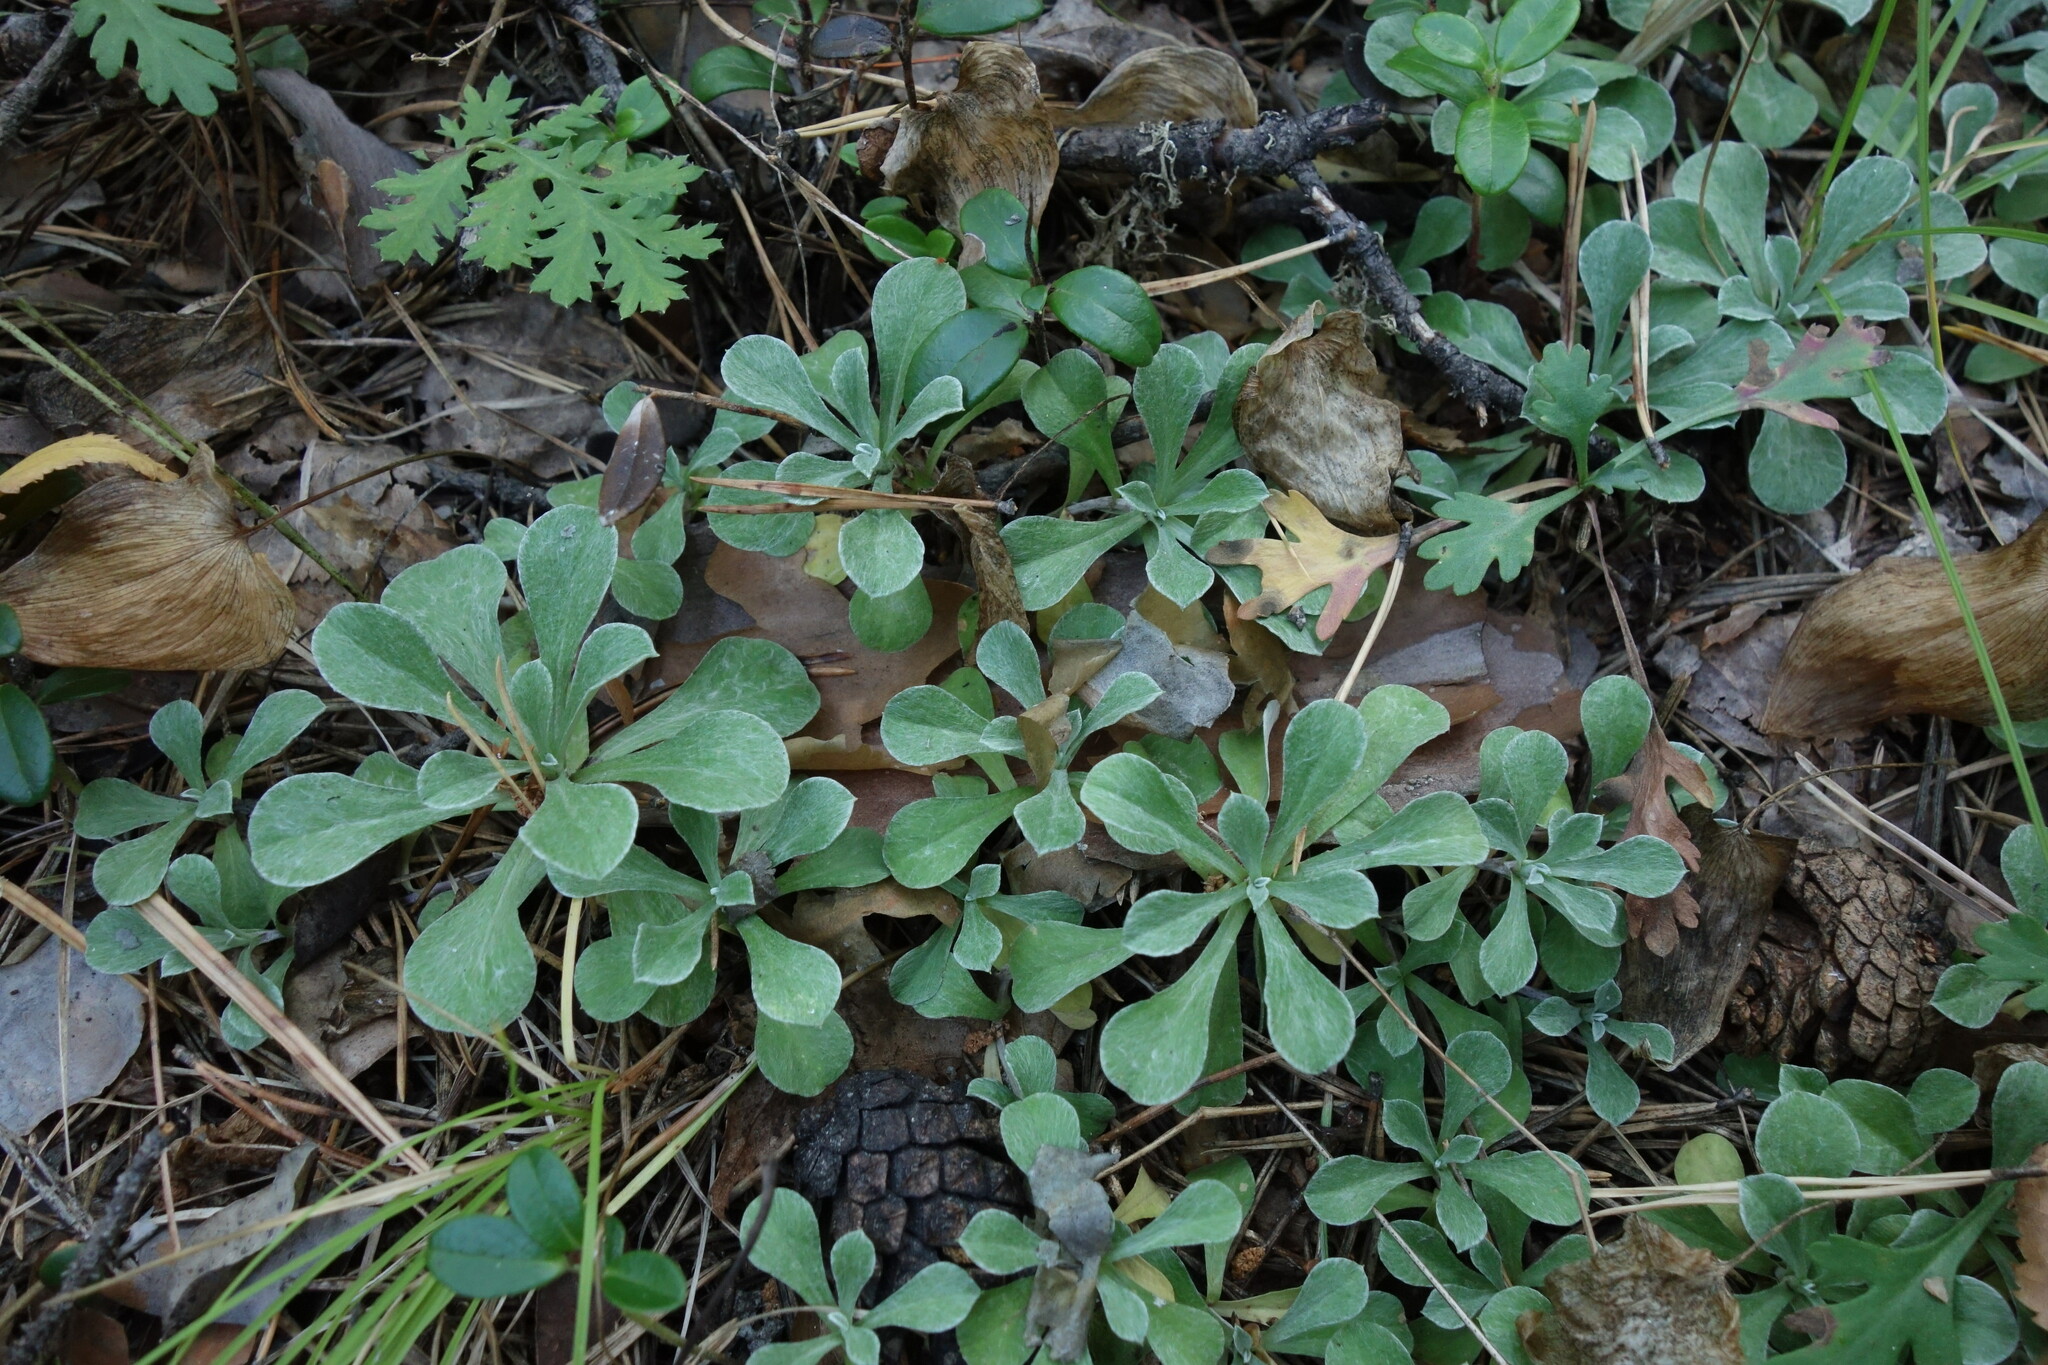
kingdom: Plantae
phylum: Tracheophyta
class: Magnoliopsida
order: Asterales
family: Asteraceae
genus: Antennaria
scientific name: Antennaria dioica
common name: Mountain everlasting
